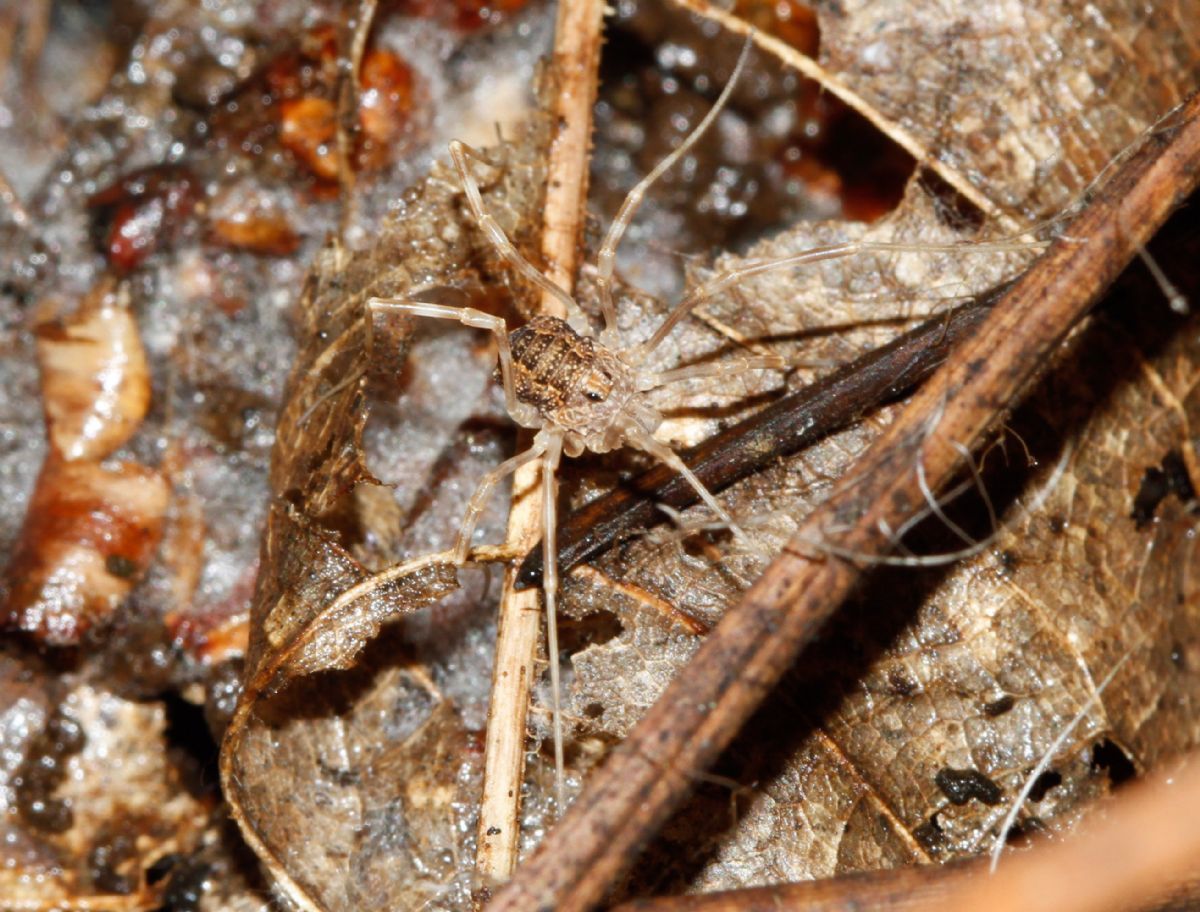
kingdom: Animalia
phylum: Arthropoda
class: Arachnida
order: Opiliones
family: Phalangiidae
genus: Rilaena
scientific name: Rilaena triangularis
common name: Spring harvestman
